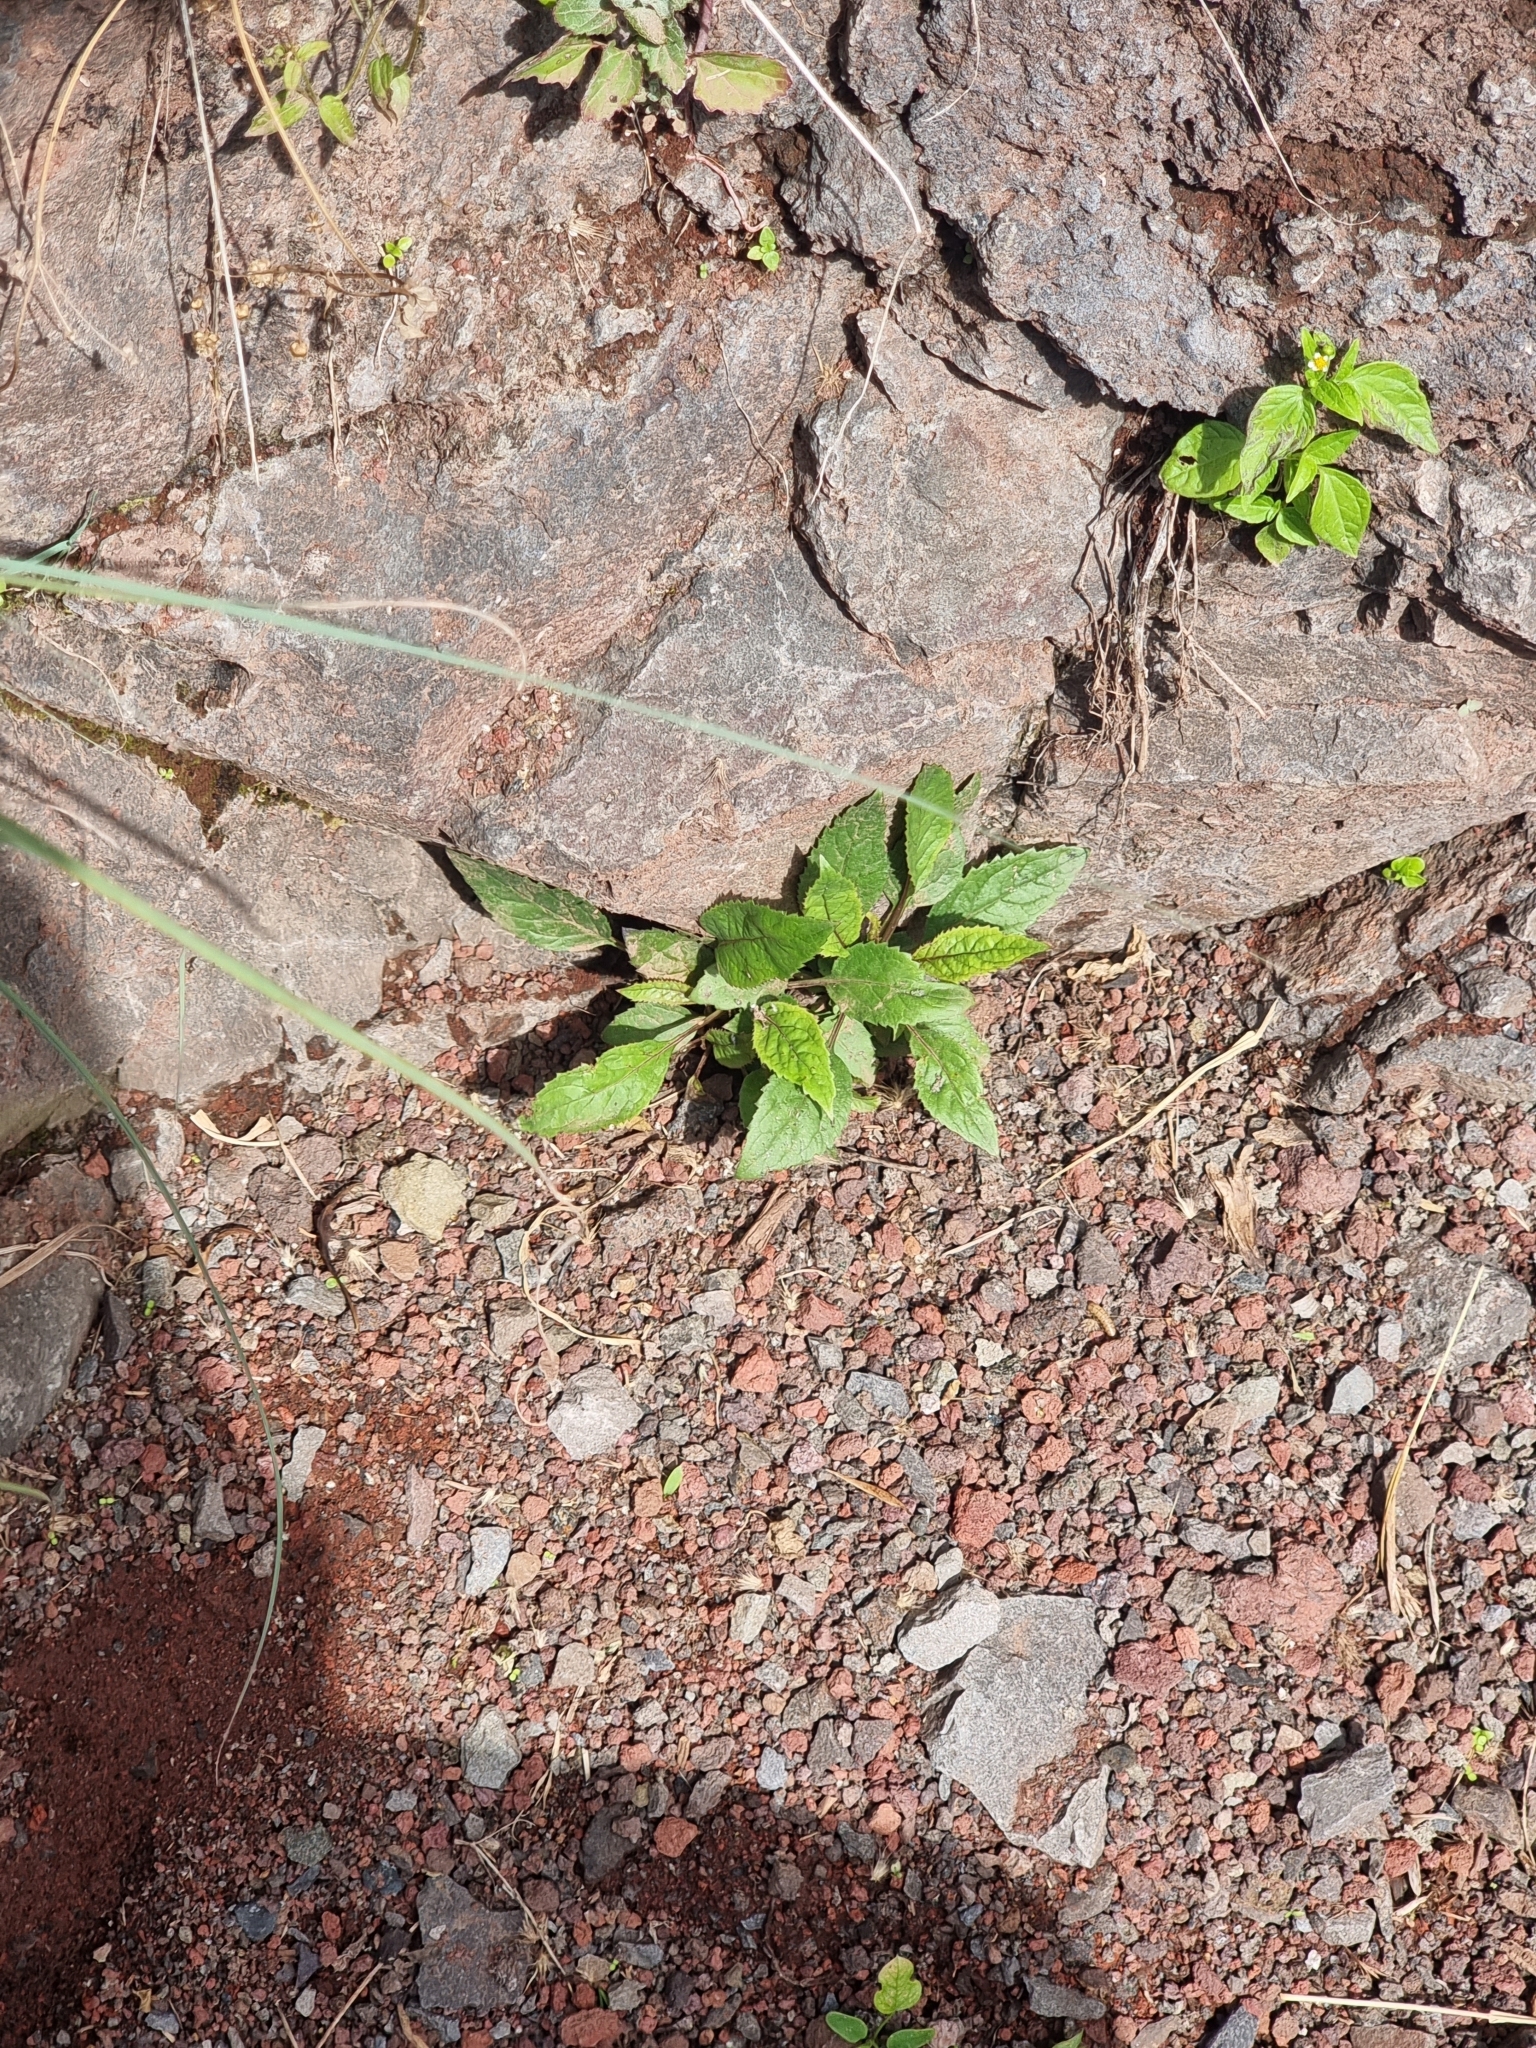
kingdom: Plantae
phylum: Tracheophyta
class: Magnoliopsida
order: Asterales
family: Campanulaceae
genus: Trachelium
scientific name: Trachelium caeruleum
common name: Throatwort
